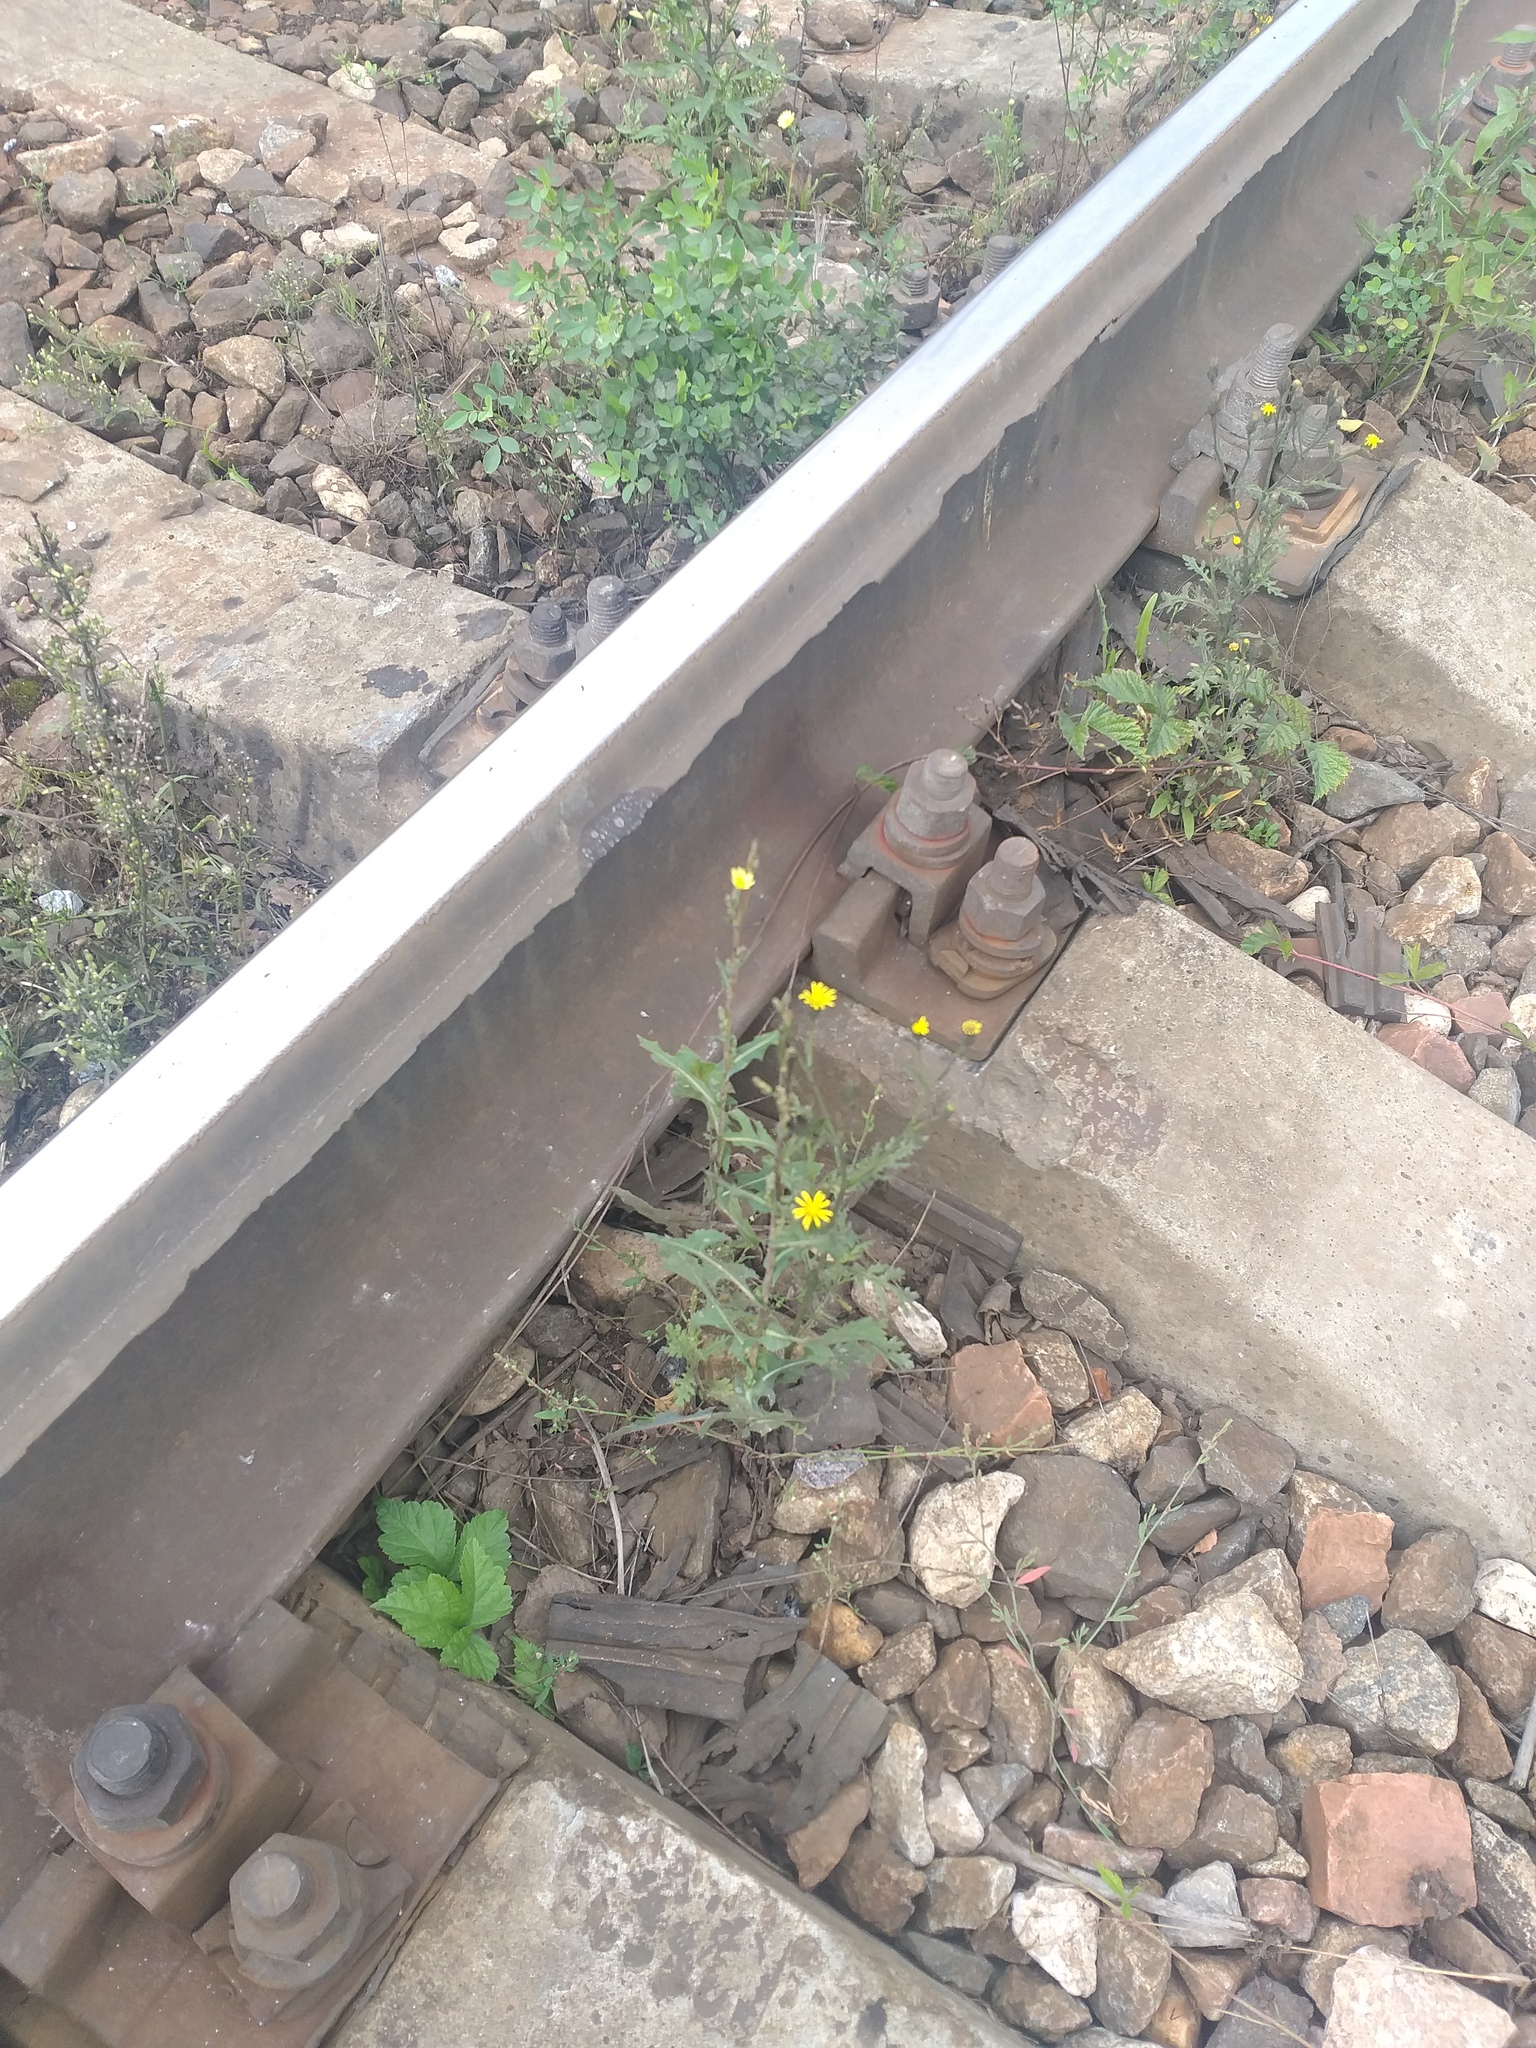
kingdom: Plantae
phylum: Tracheophyta
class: Magnoliopsida
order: Asterales
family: Asteraceae
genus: Senecio
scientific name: Senecio viscosus
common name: Sticky groundsel
